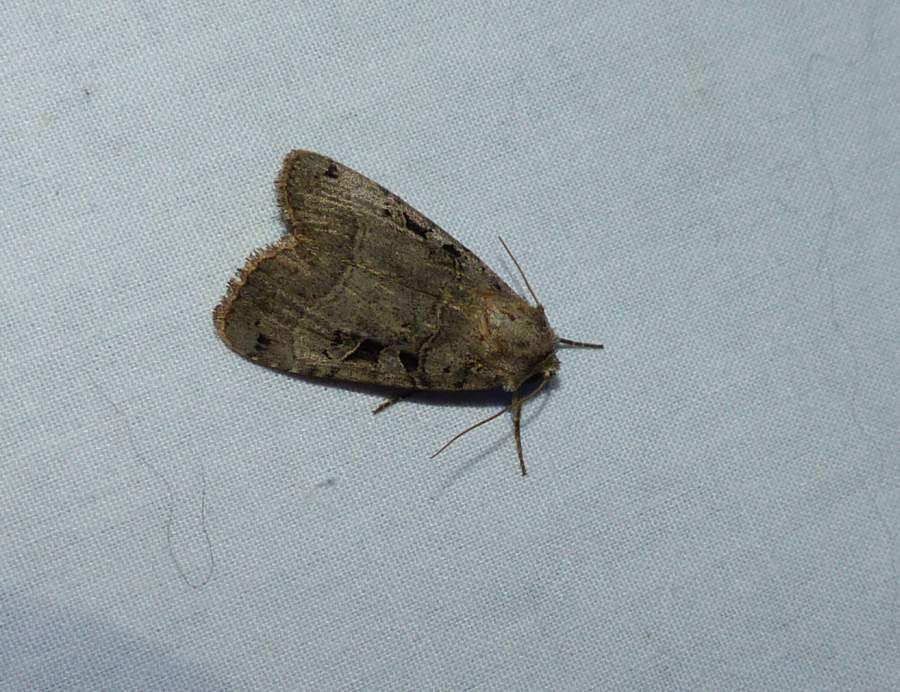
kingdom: Animalia
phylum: Arthropoda
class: Insecta
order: Lepidoptera
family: Noctuidae
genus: Xestia
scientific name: Xestia normaniana
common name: Norman's dart moth
